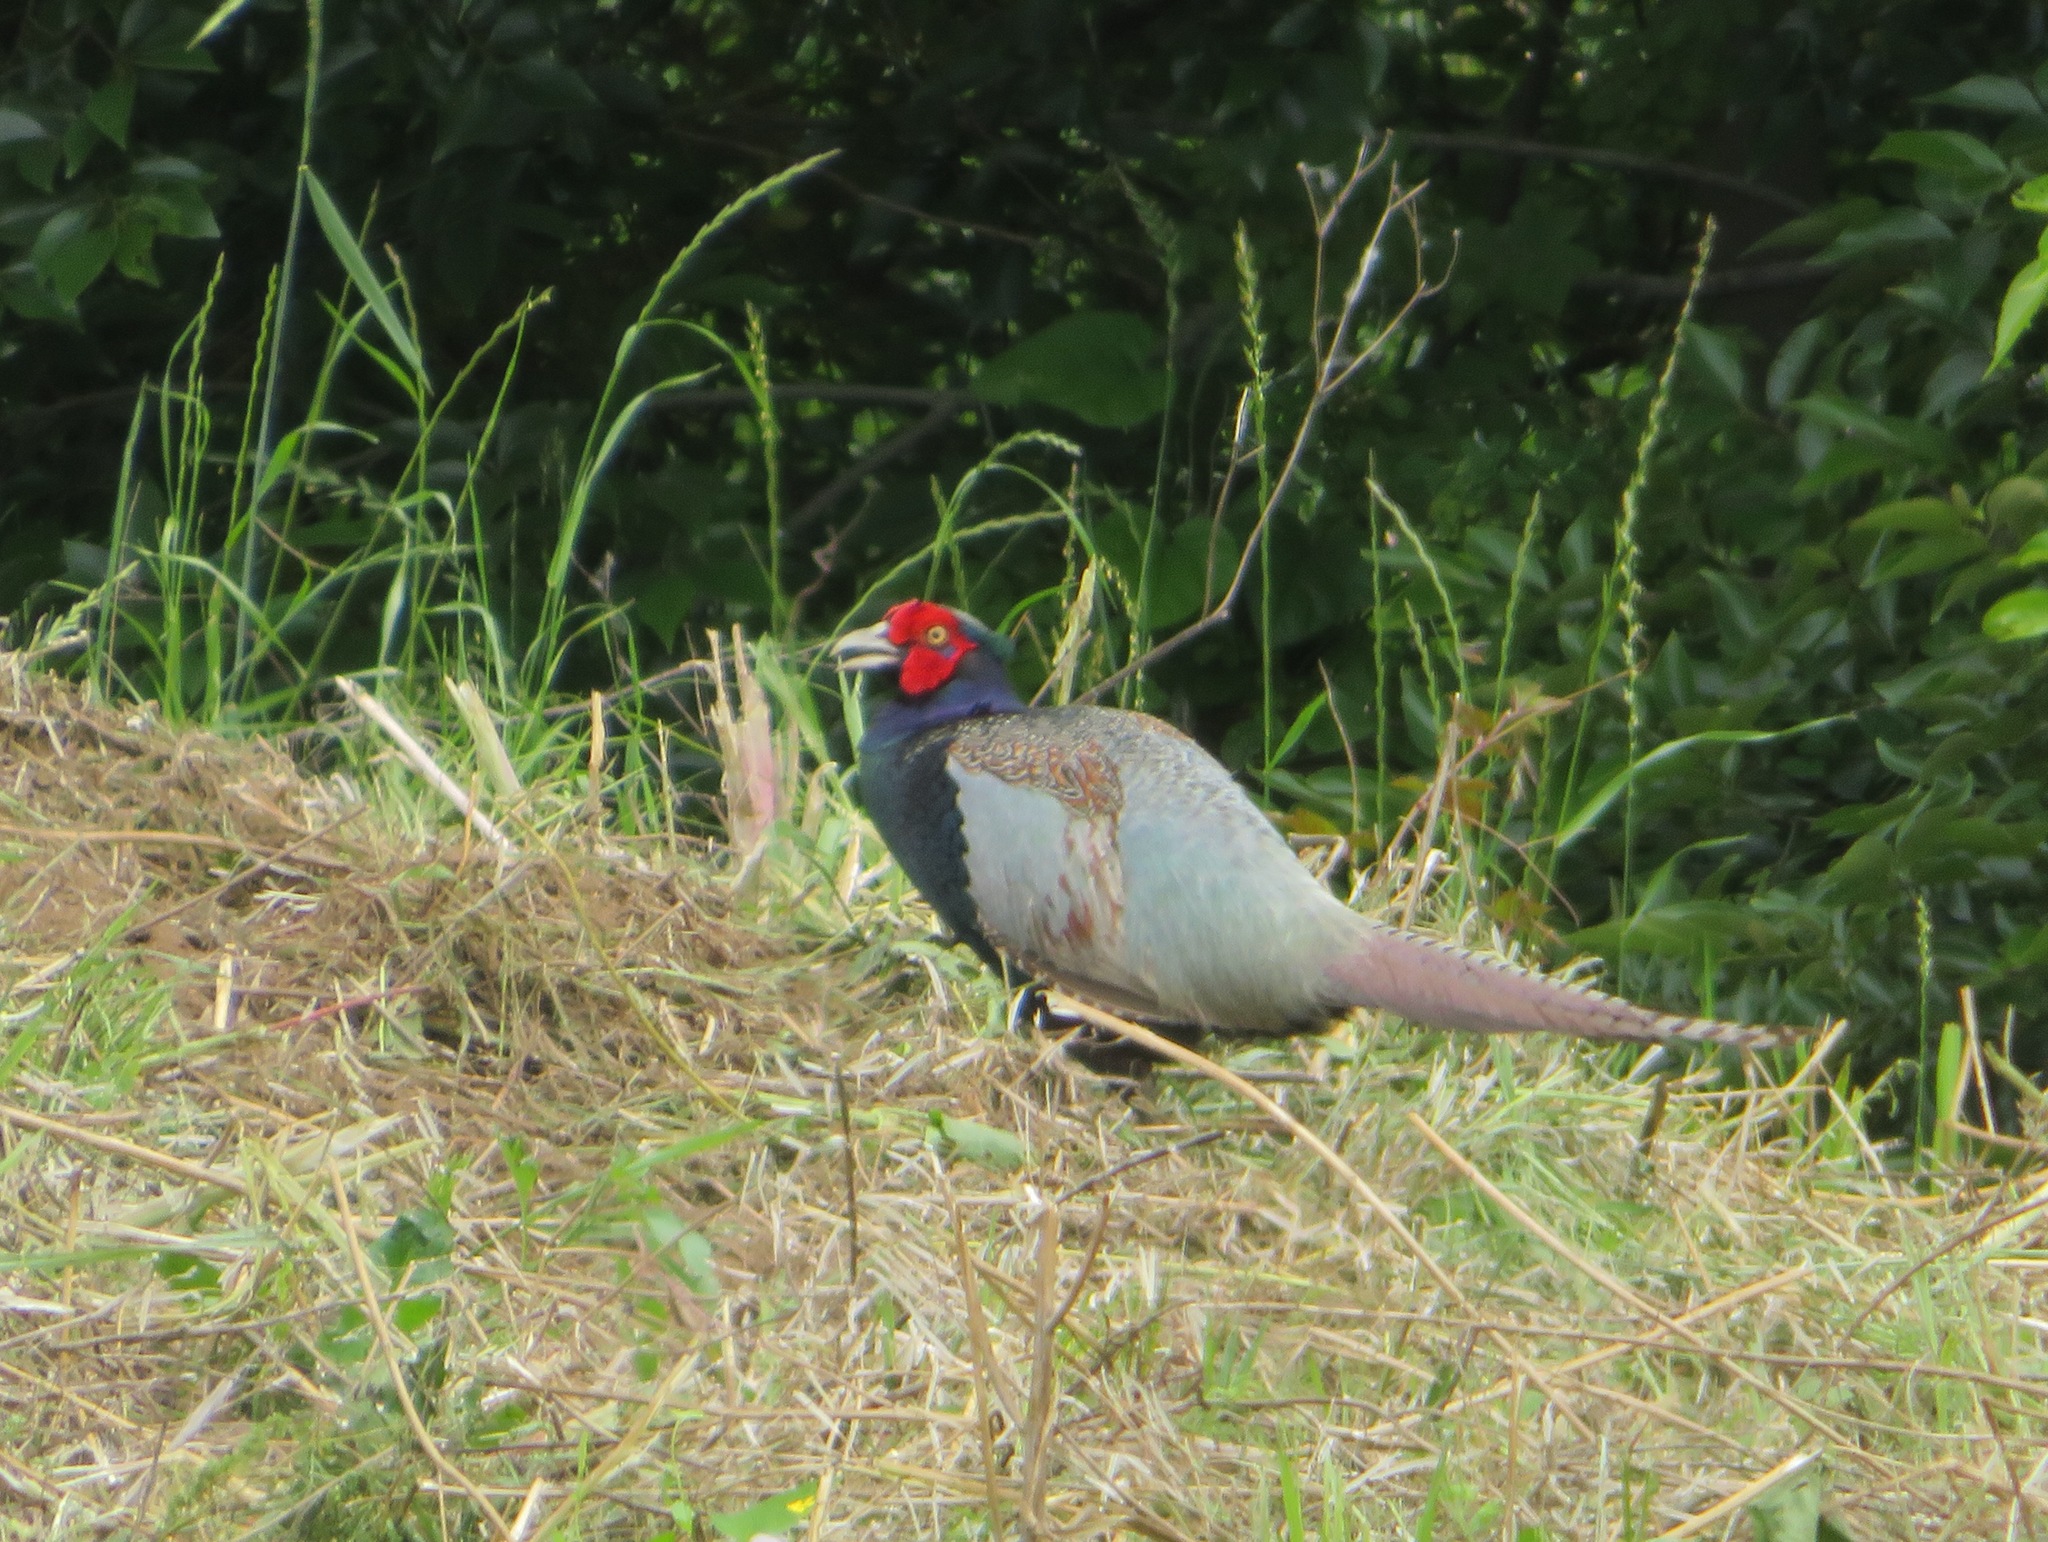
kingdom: Animalia
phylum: Chordata
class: Aves
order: Galliformes
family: Phasianidae
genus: Phasianus
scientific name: Phasianus versicolor
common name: Green pheasant
